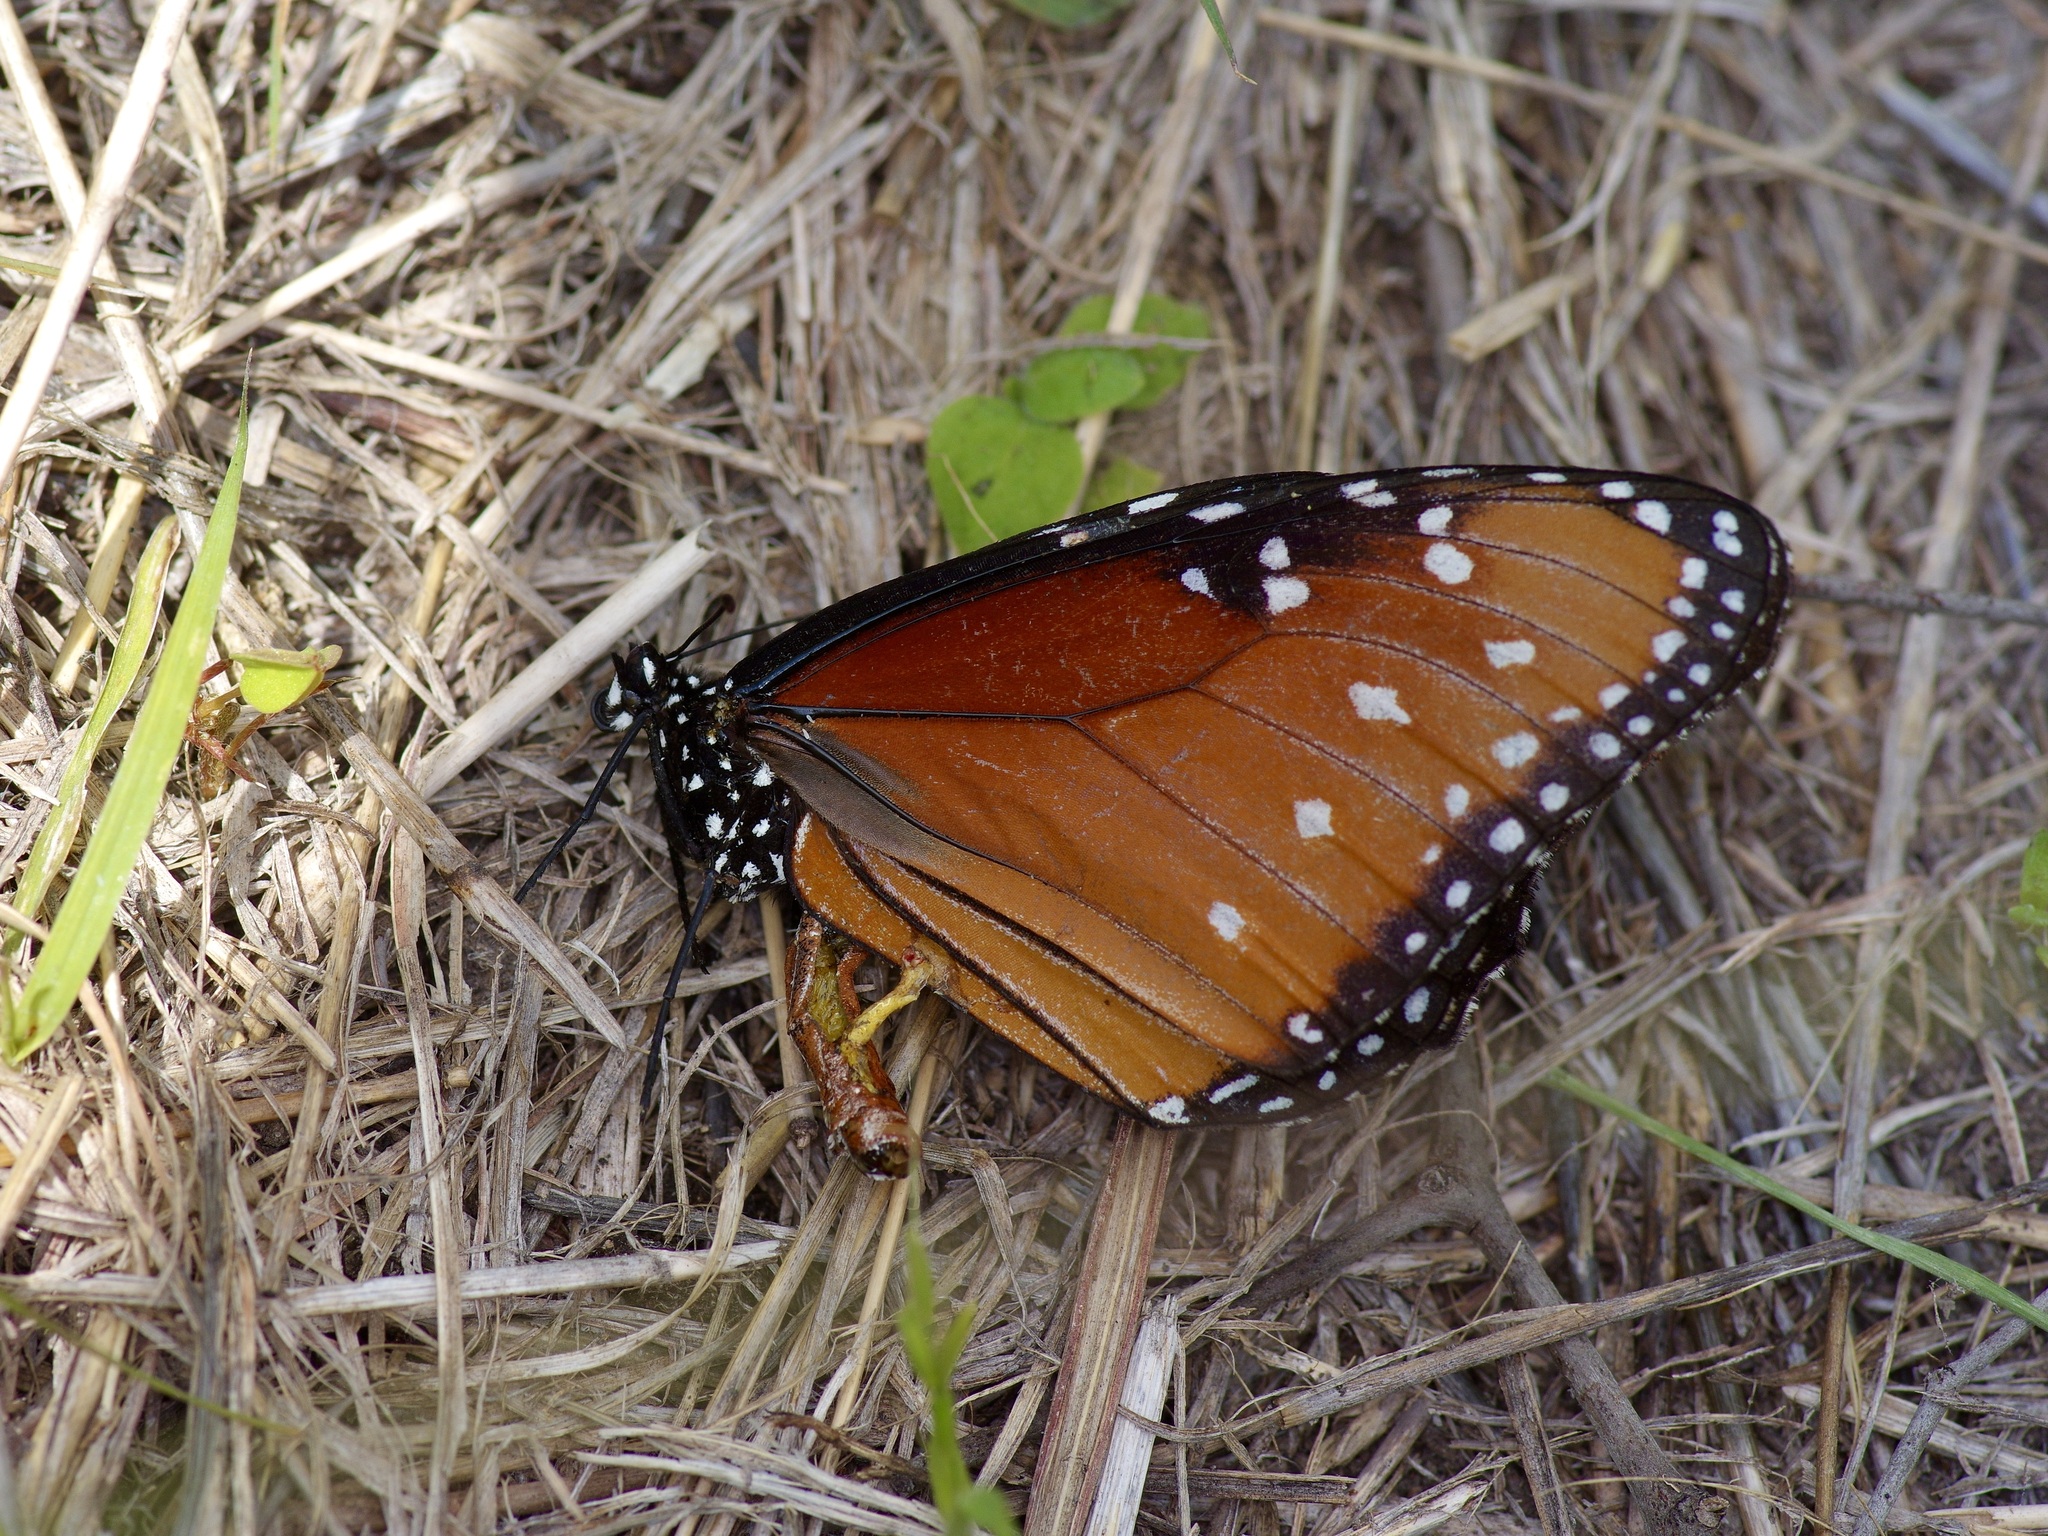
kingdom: Animalia
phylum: Arthropoda
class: Insecta
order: Lepidoptera
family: Nymphalidae
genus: Danaus
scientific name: Danaus gilippus
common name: Queen
